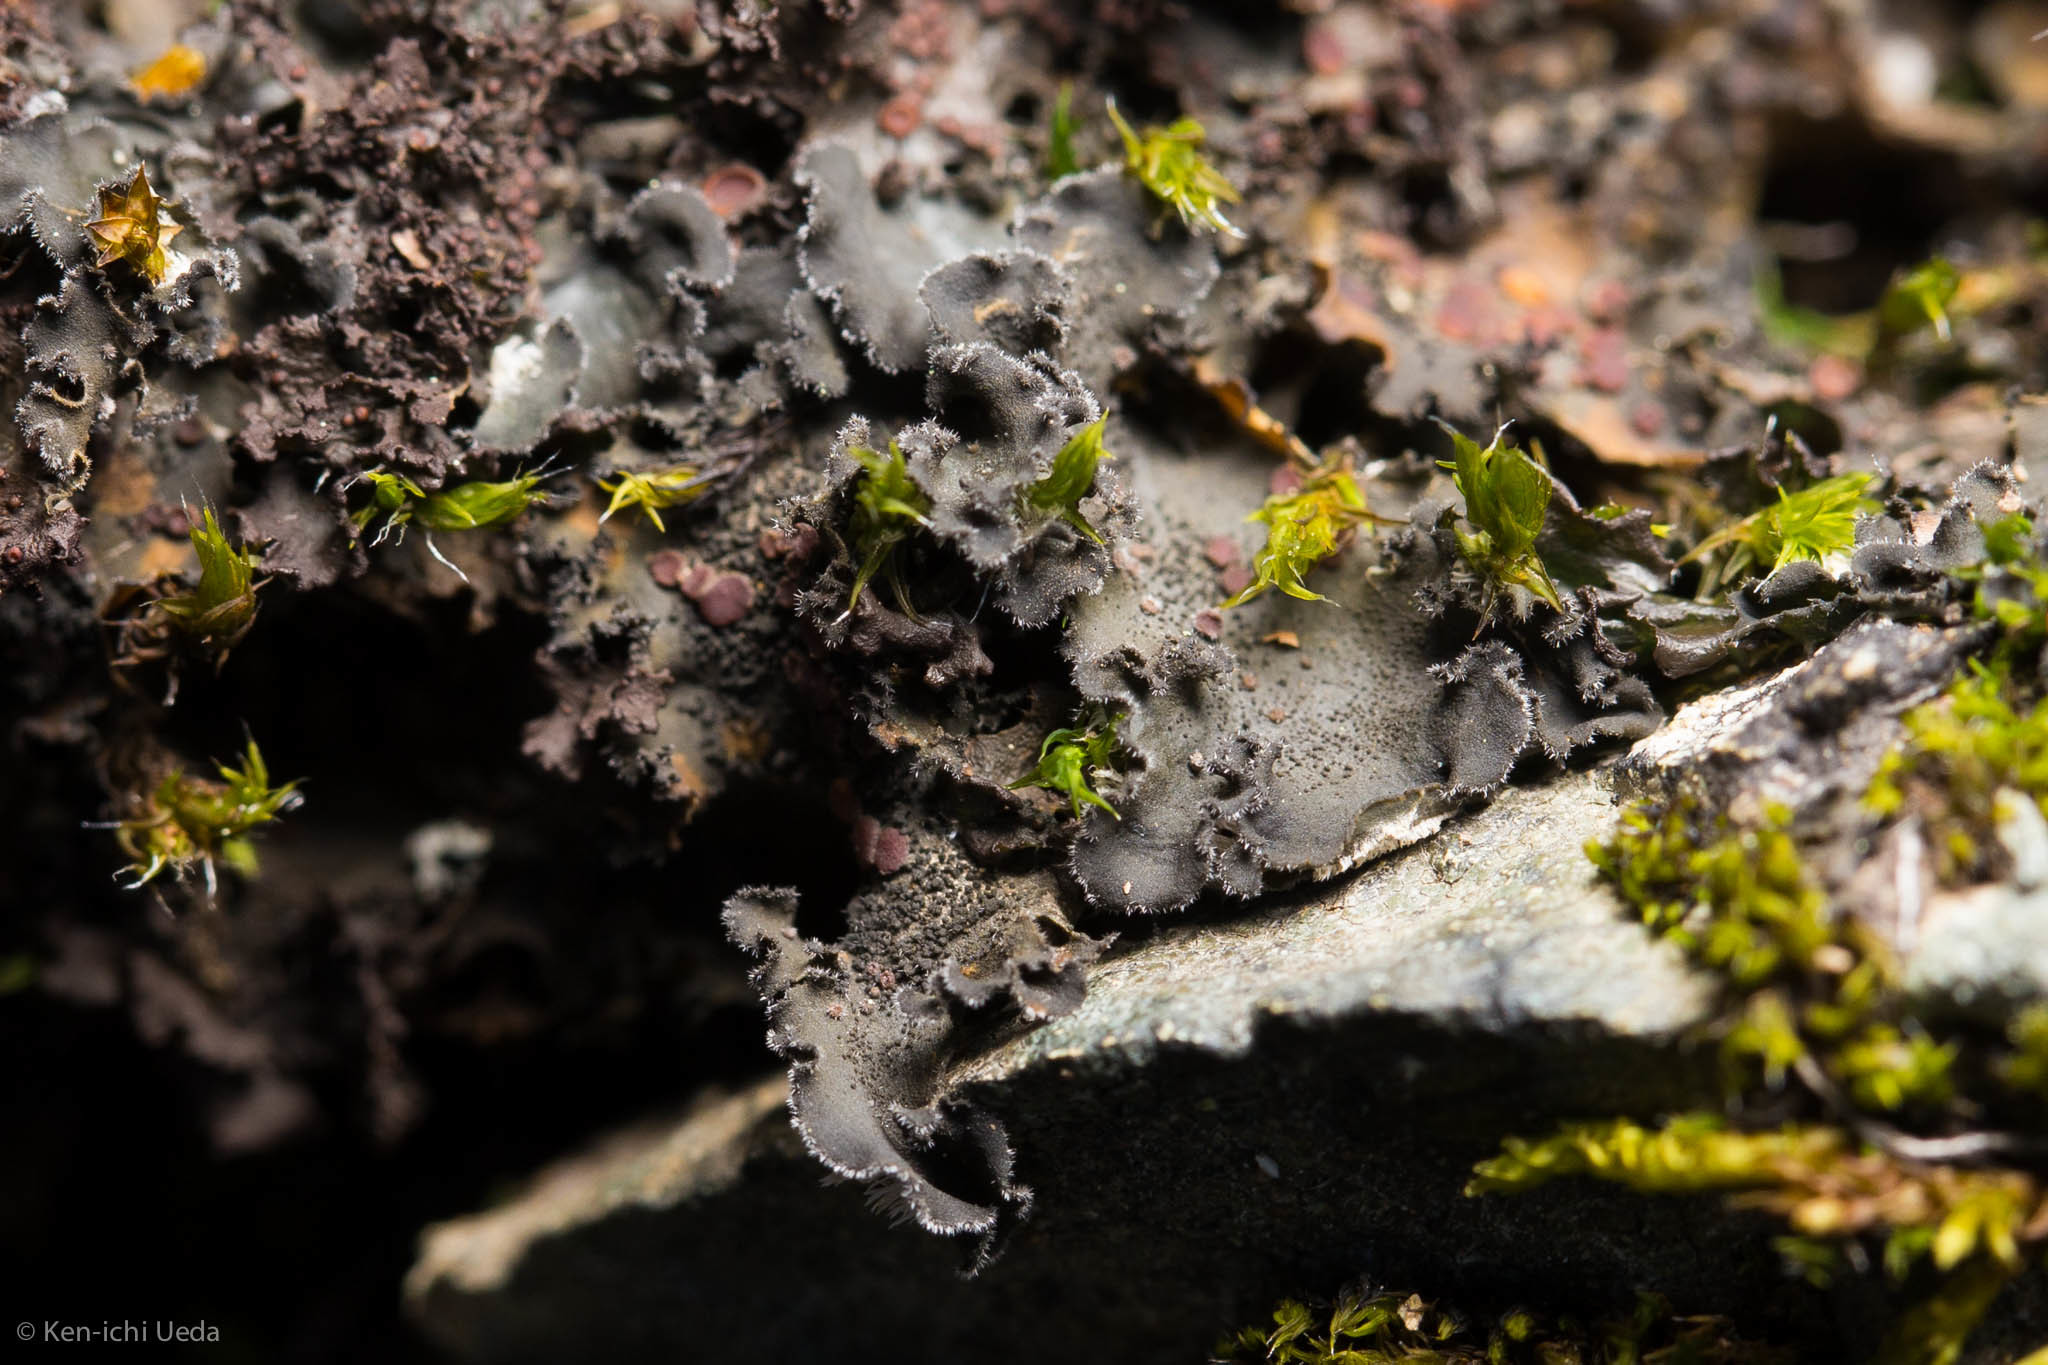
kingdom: Fungi
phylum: Ascomycota
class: Lecanoromycetes
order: Peltigerales
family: Massalongiaceae
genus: Leptochidium
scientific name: Leptochidium albociliatum
